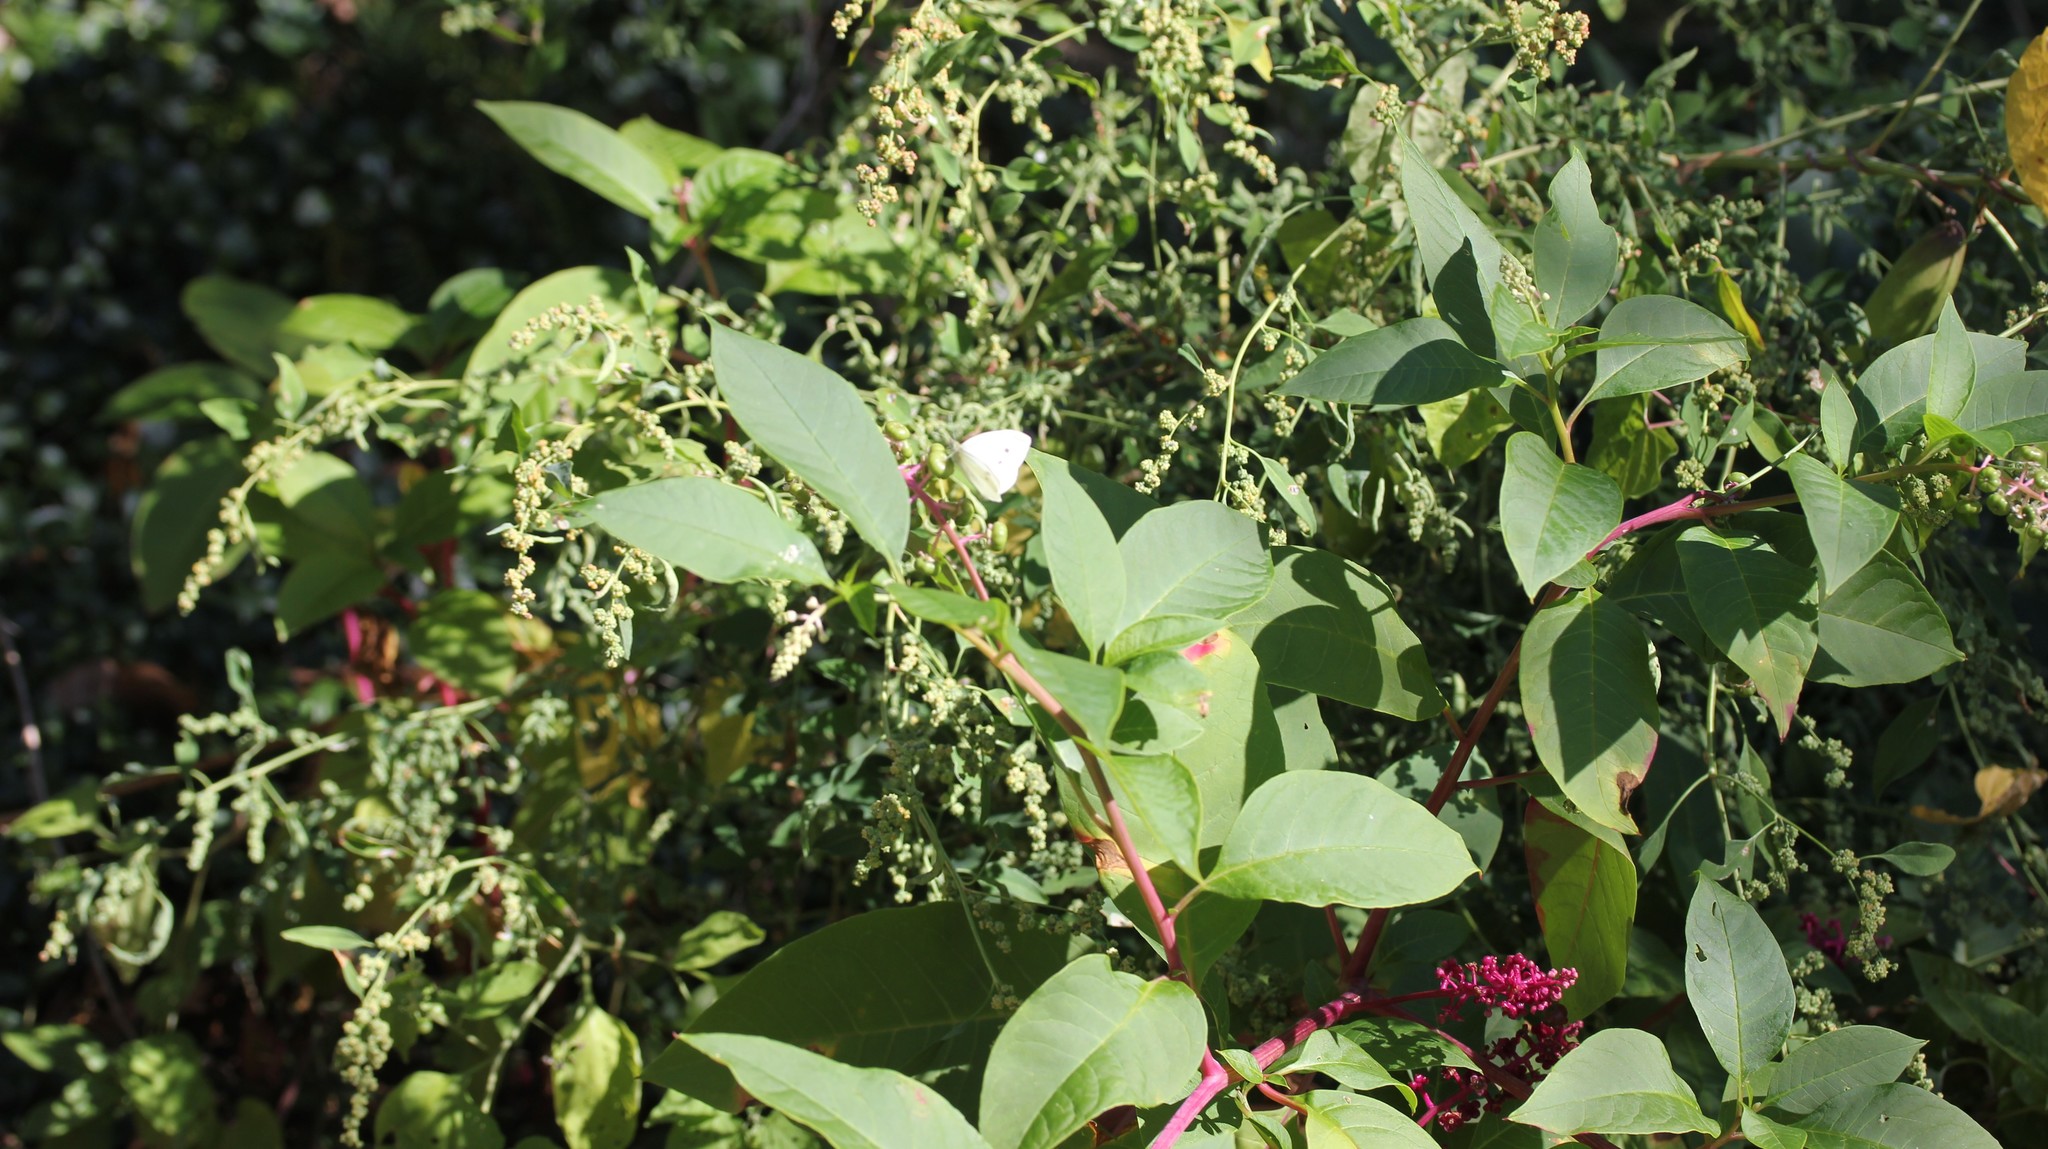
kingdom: Plantae
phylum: Tracheophyta
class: Magnoliopsida
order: Caryophyllales
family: Phytolaccaceae
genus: Phytolacca
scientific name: Phytolacca americana
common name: American pokeweed
